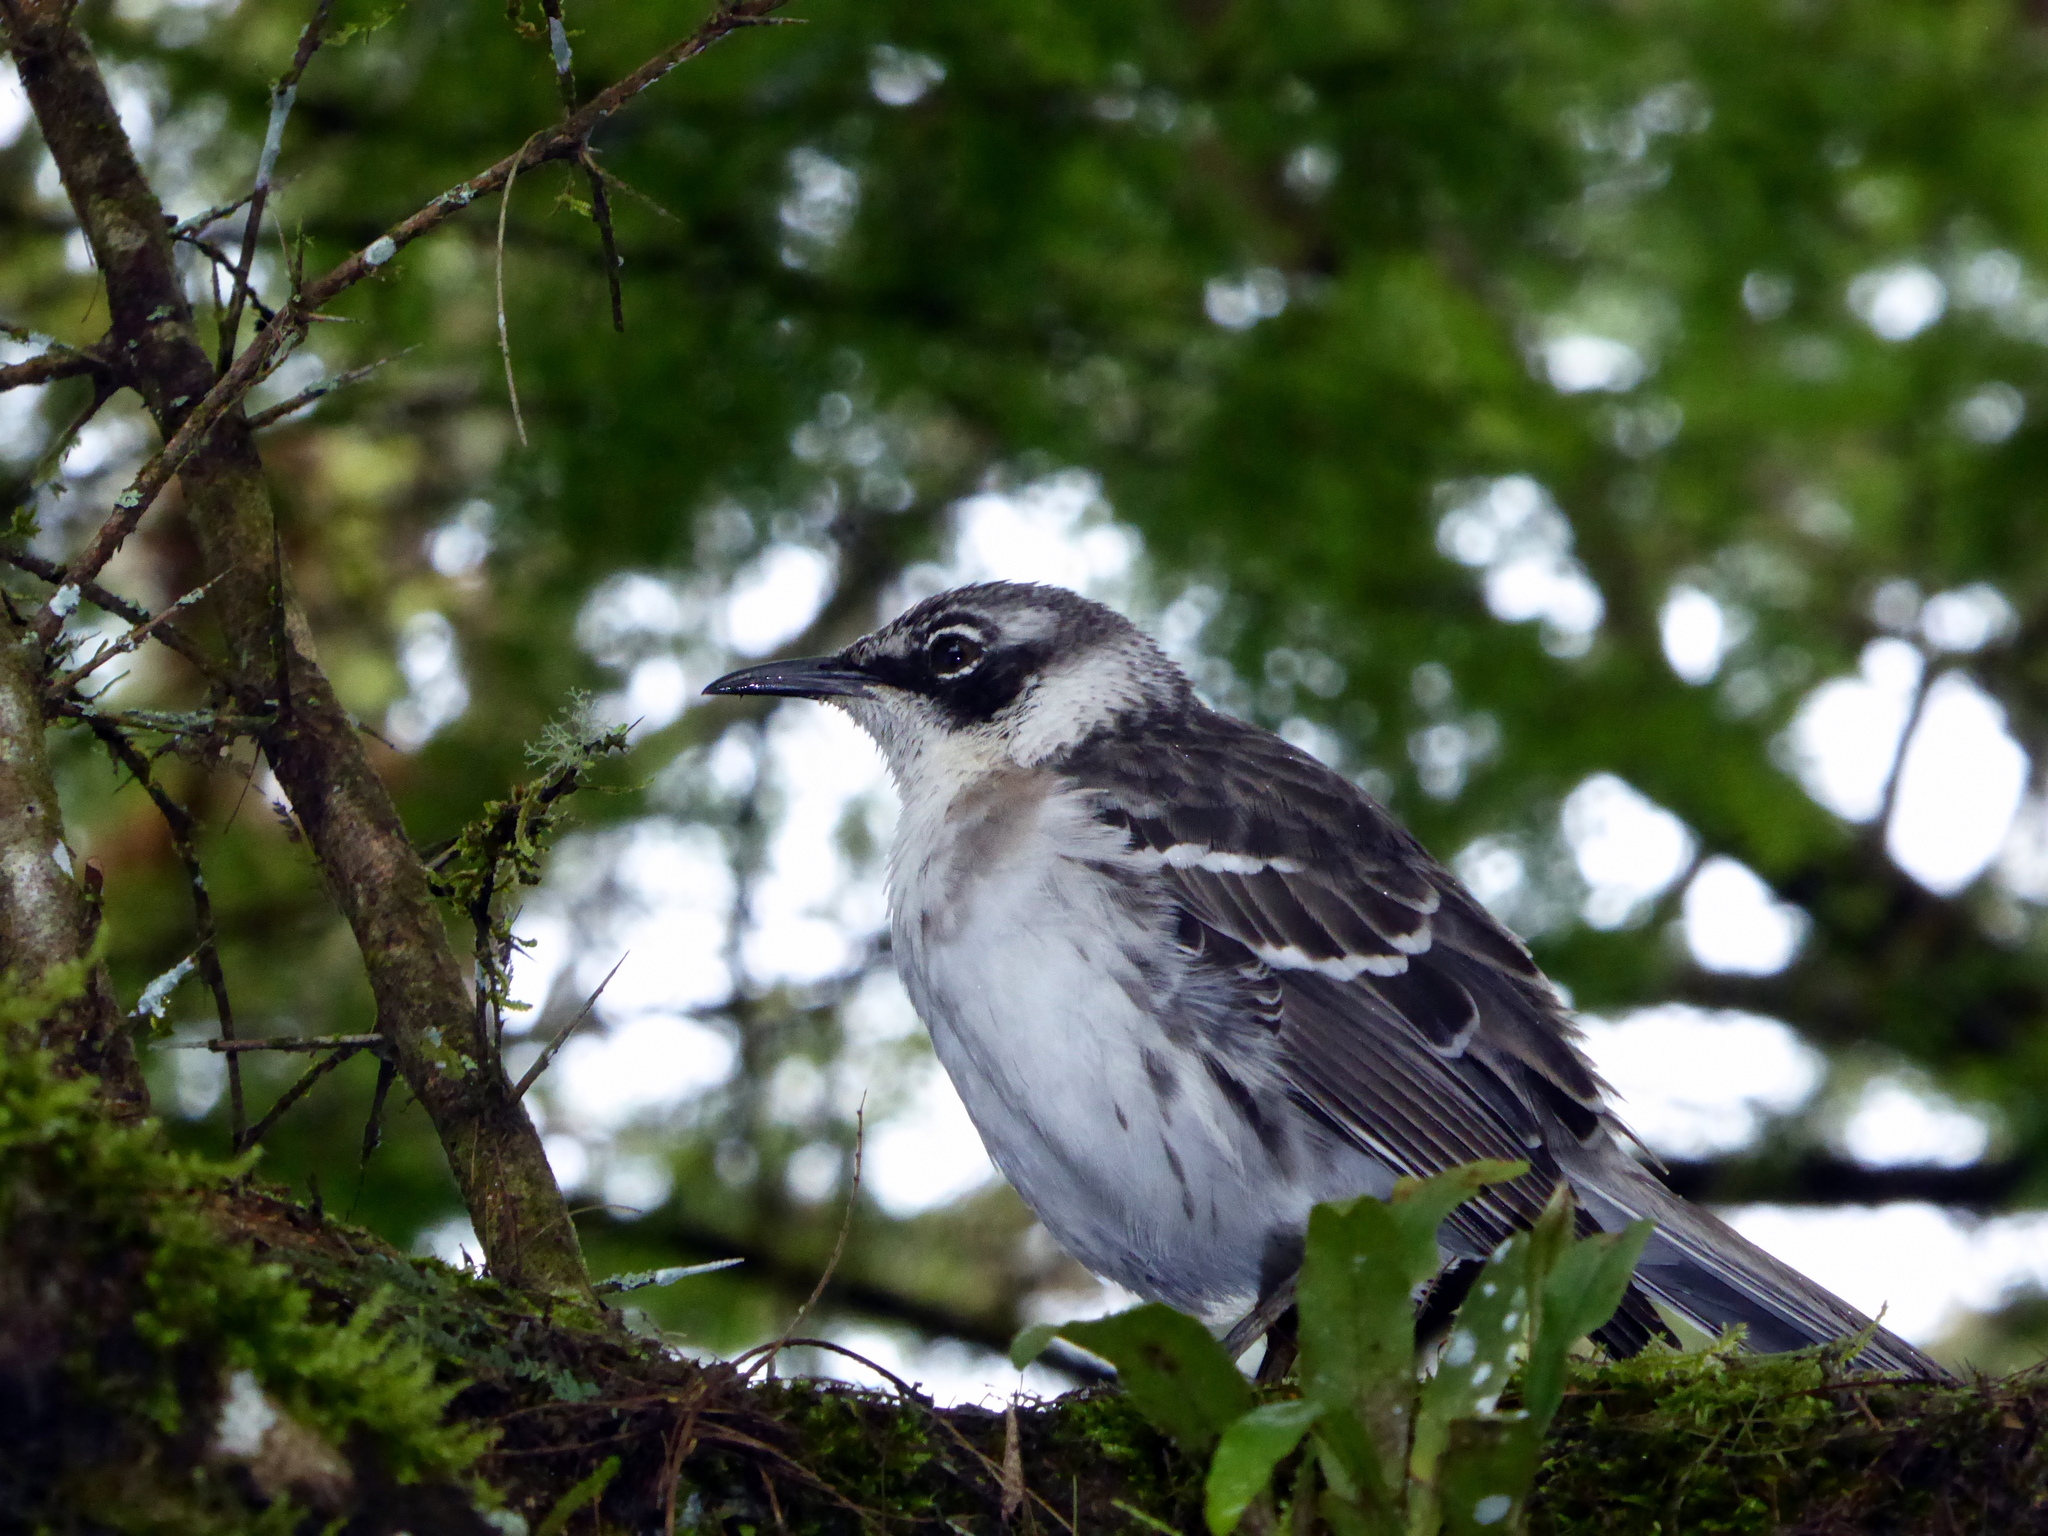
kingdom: Animalia
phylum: Chordata
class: Aves
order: Passeriformes
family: Mimidae
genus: Mimus
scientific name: Mimus parvulus
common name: Galapagos mockingbird
